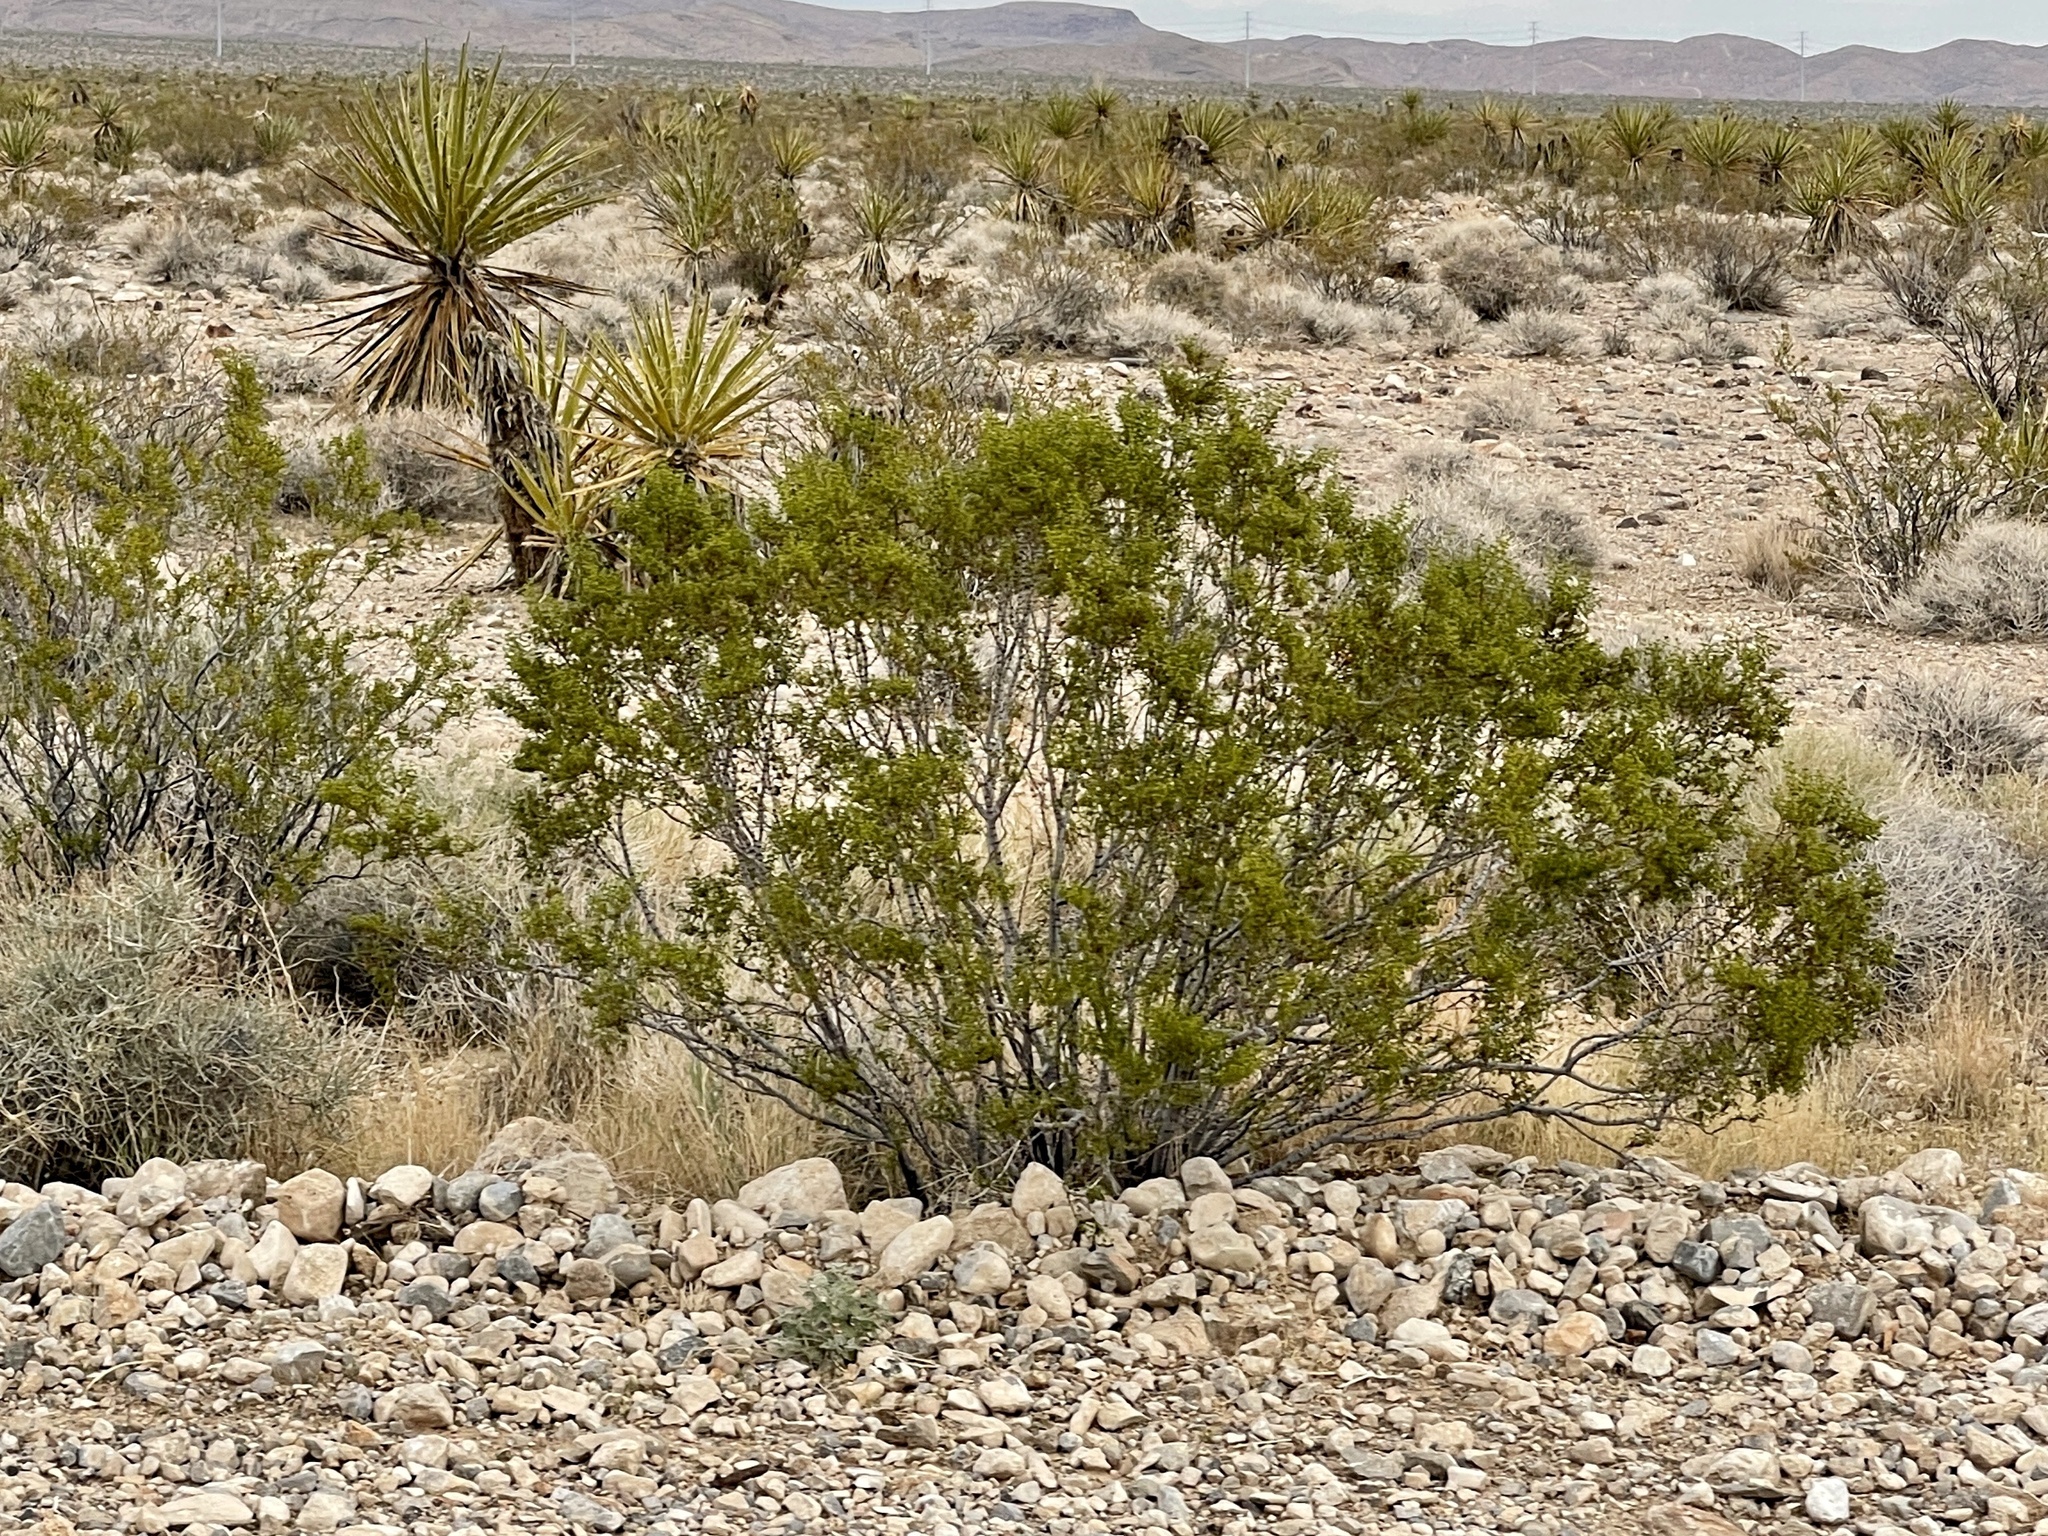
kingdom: Plantae
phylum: Tracheophyta
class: Magnoliopsida
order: Zygophyllales
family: Zygophyllaceae
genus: Larrea
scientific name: Larrea tridentata
